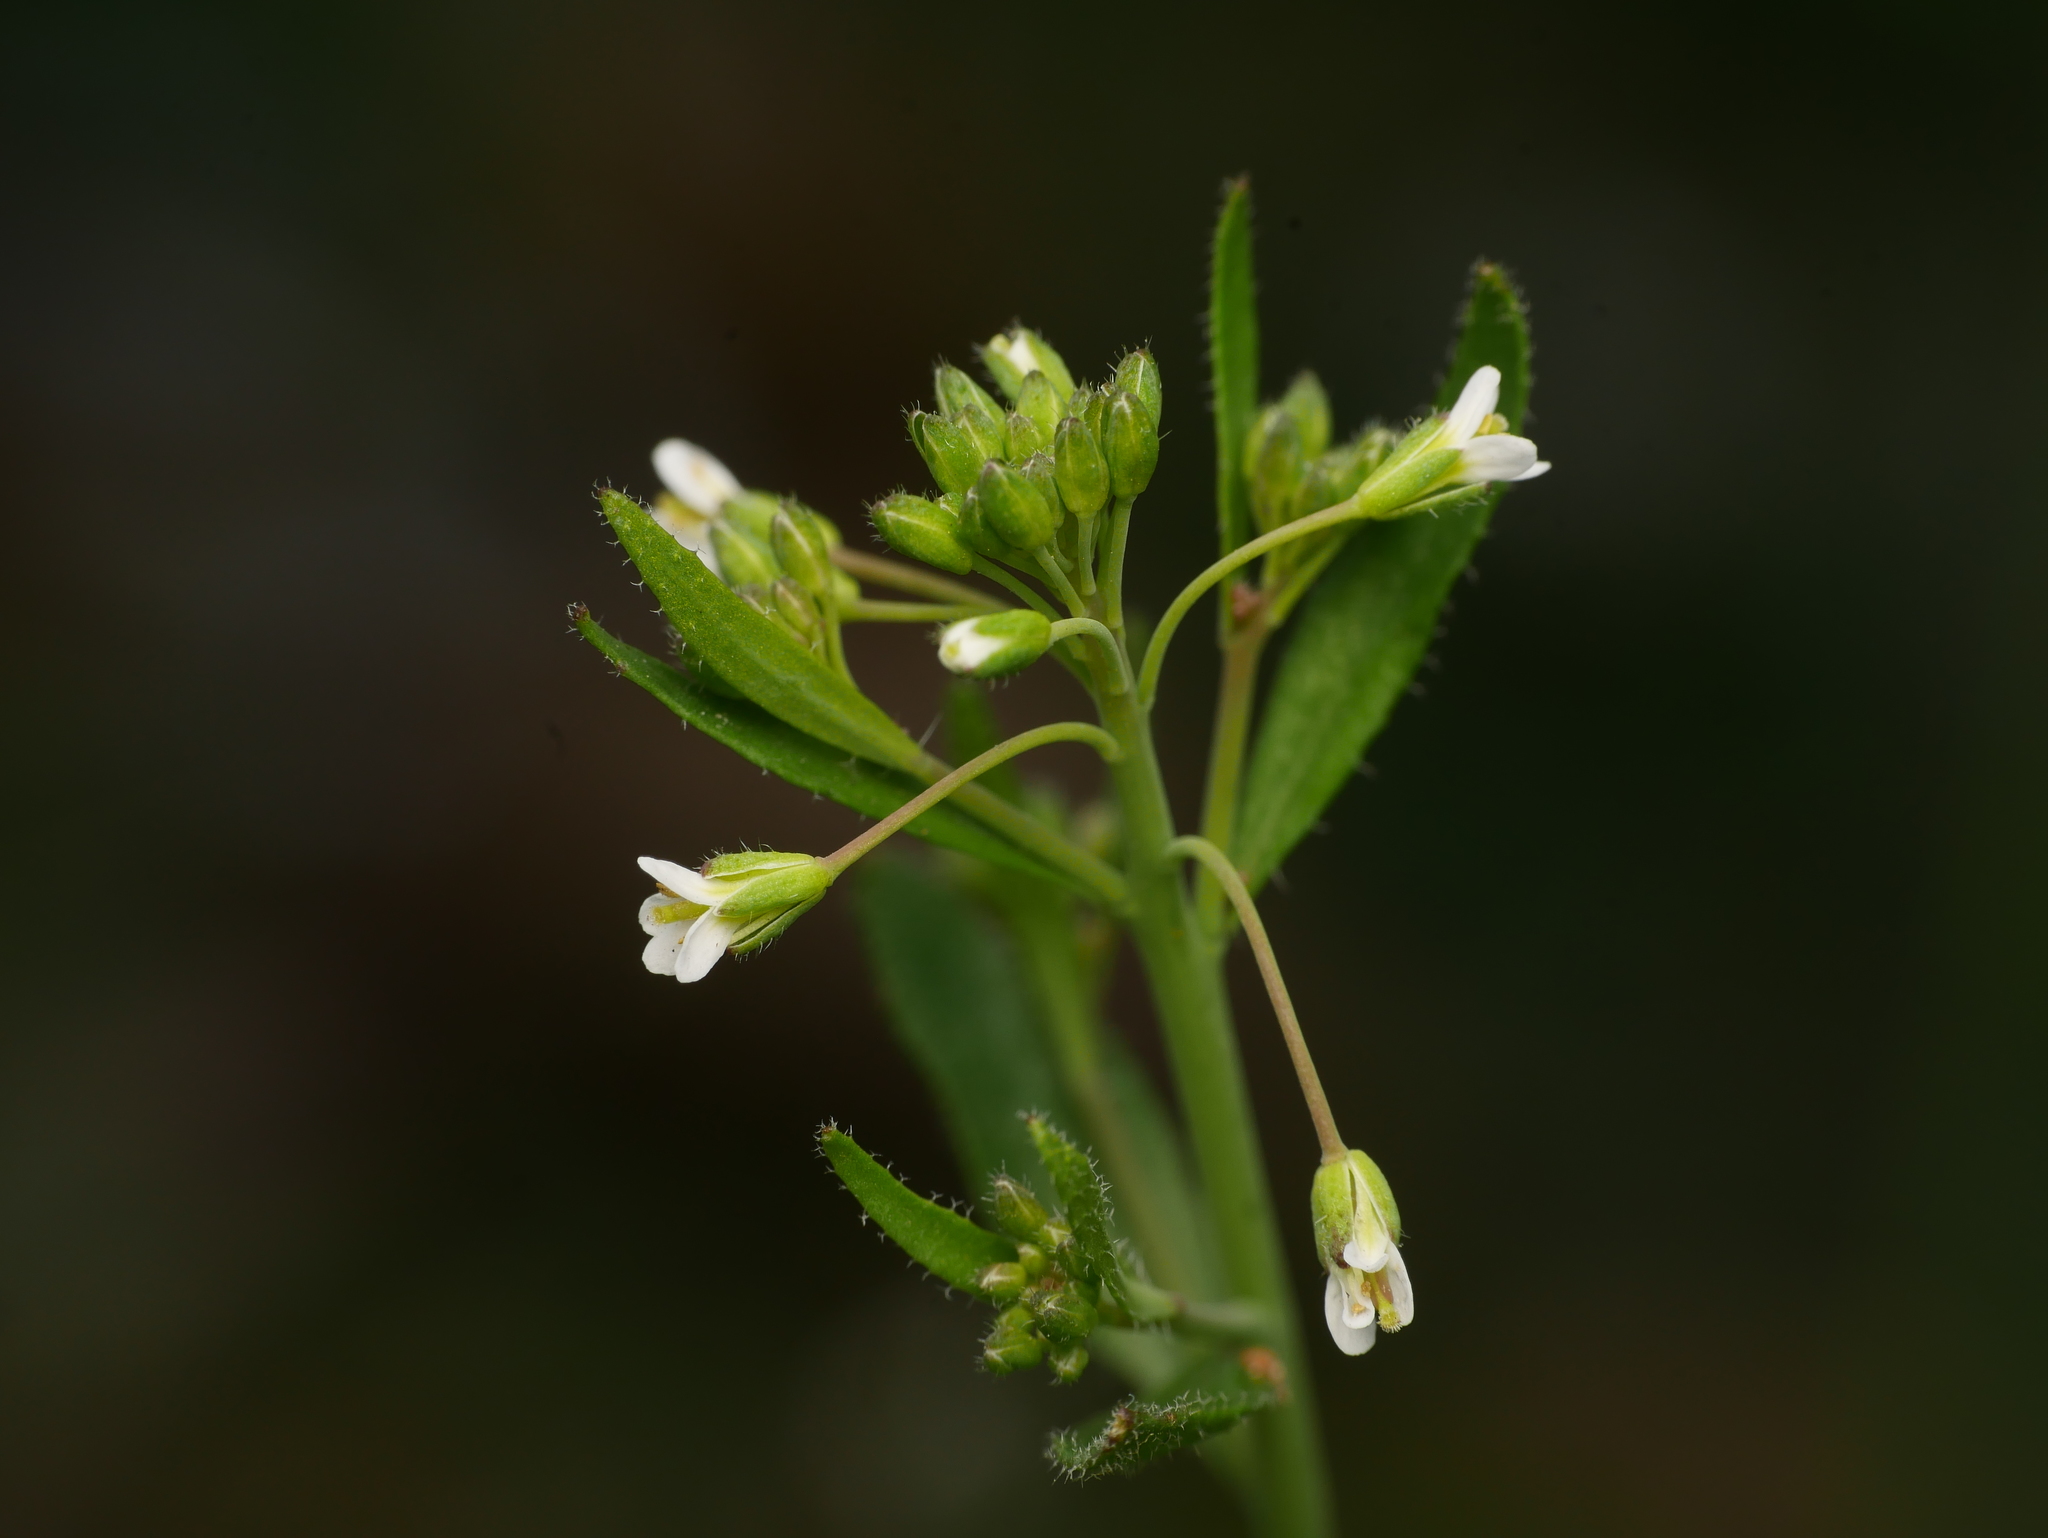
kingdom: Plantae
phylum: Tracheophyta
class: Magnoliopsida
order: Brassicales
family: Brassicaceae
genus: Arabidopsis
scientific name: Arabidopsis thaliana
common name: Thale cress
